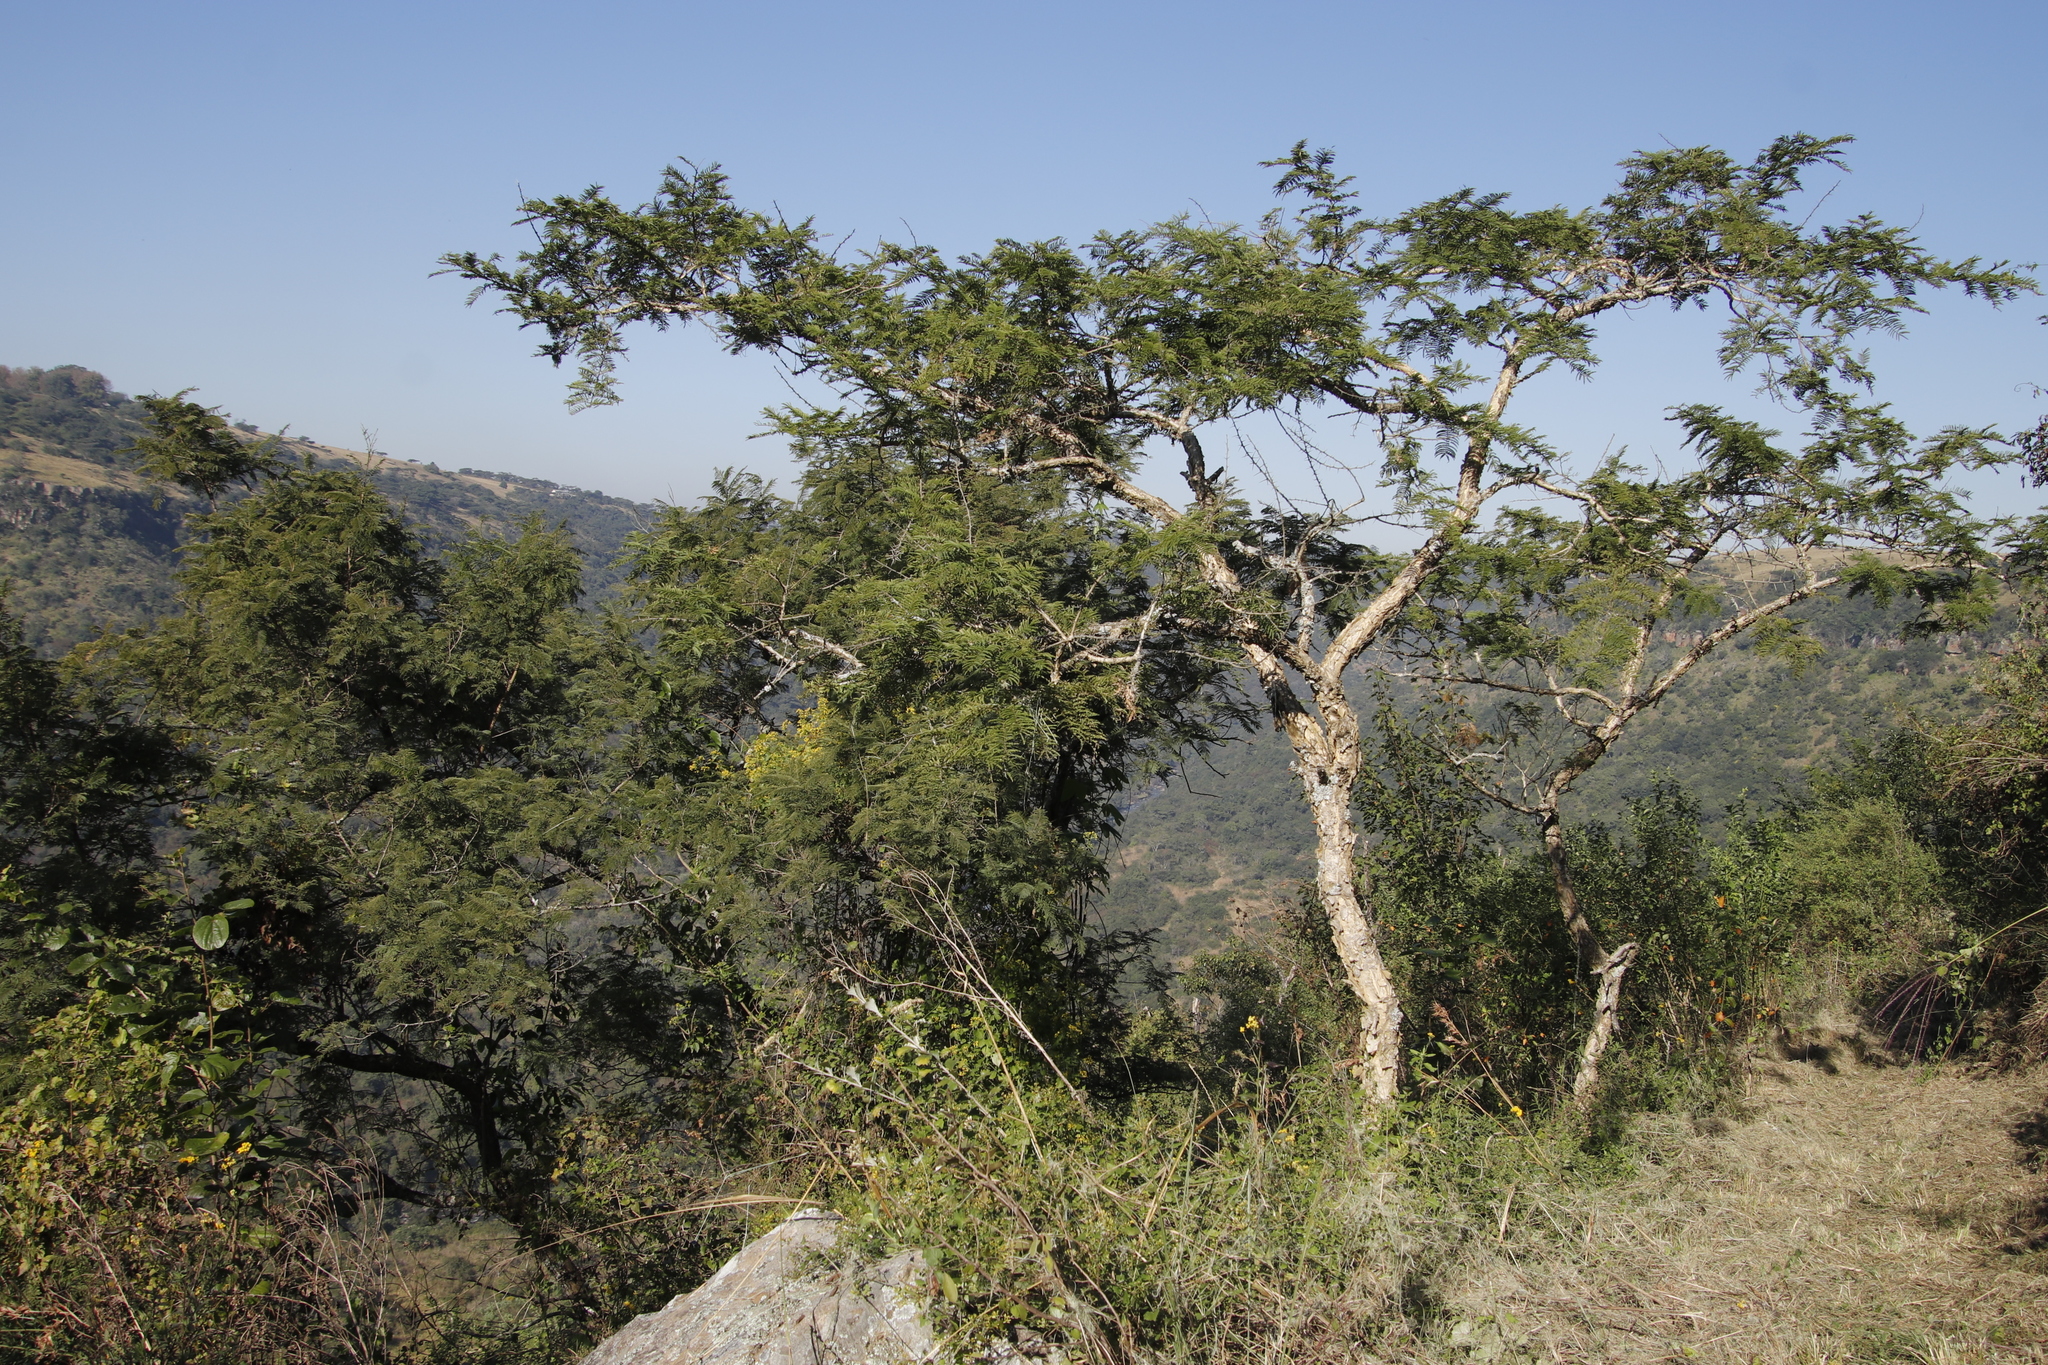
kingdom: Plantae
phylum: Tracheophyta
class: Magnoliopsida
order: Fabales
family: Fabaceae
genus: Vachellia
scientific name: Vachellia sieberiana
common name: Flat-topped thorn
